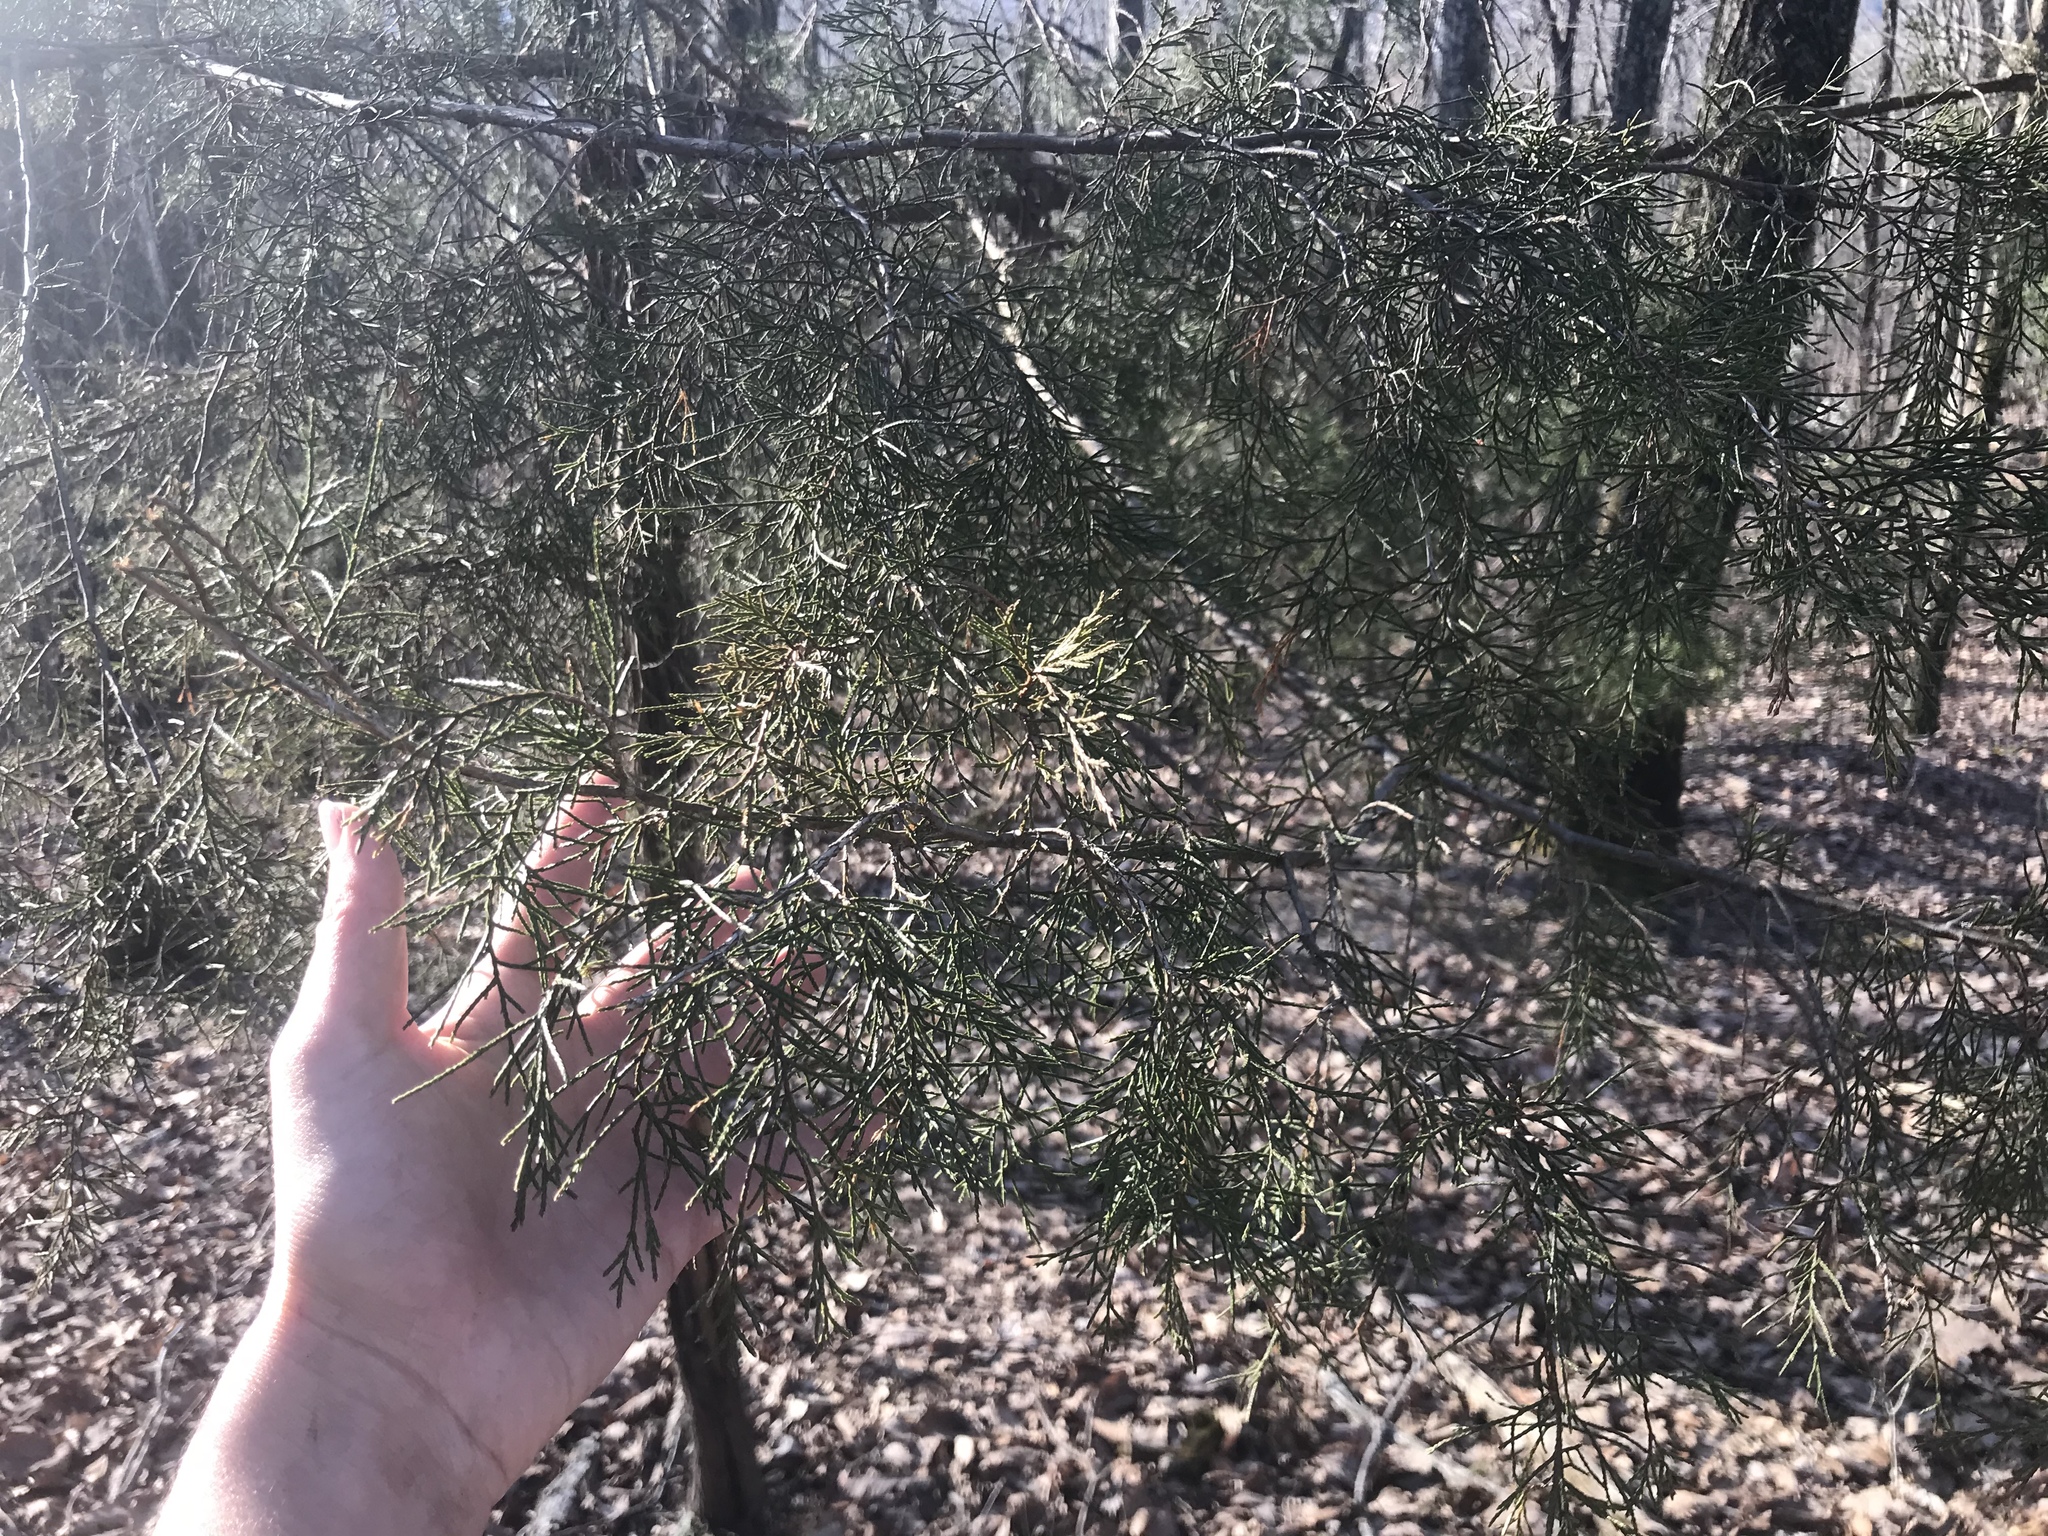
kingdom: Plantae
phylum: Tracheophyta
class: Pinopsida
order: Pinales
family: Cupressaceae
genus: Juniperus
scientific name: Juniperus virginiana
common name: Red juniper
